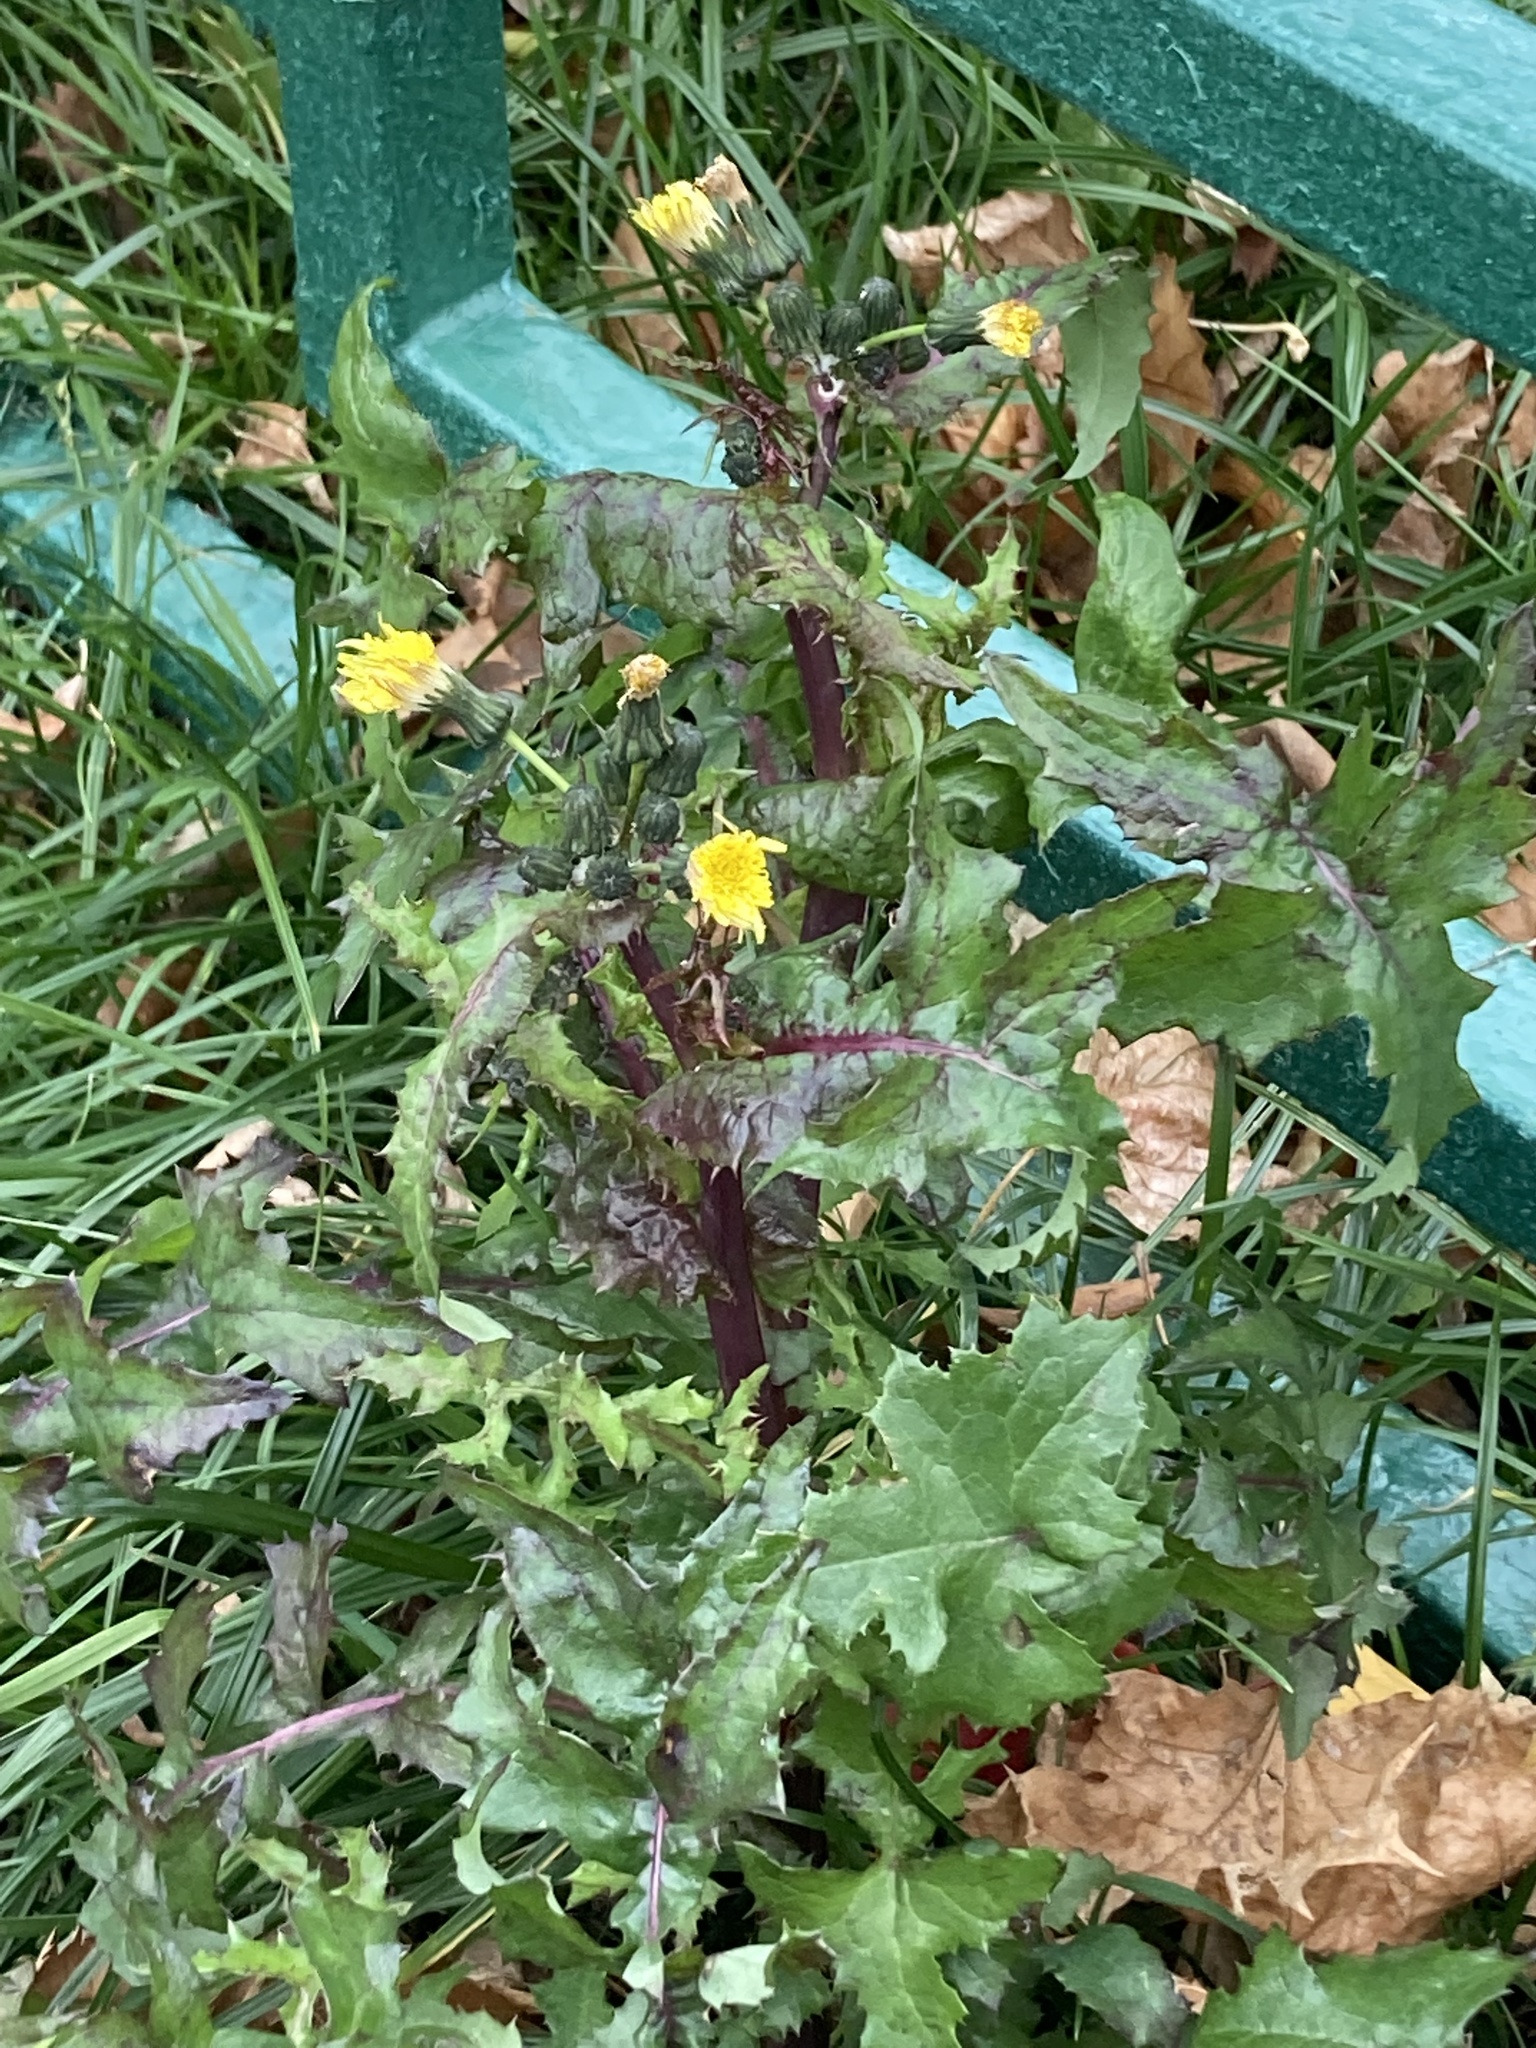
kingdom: Plantae
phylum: Tracheophyta
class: Magnoliopsida
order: Asterales
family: Asteraceae
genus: Sonchus
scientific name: Sonchus oleraceus
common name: Common sowthistle
